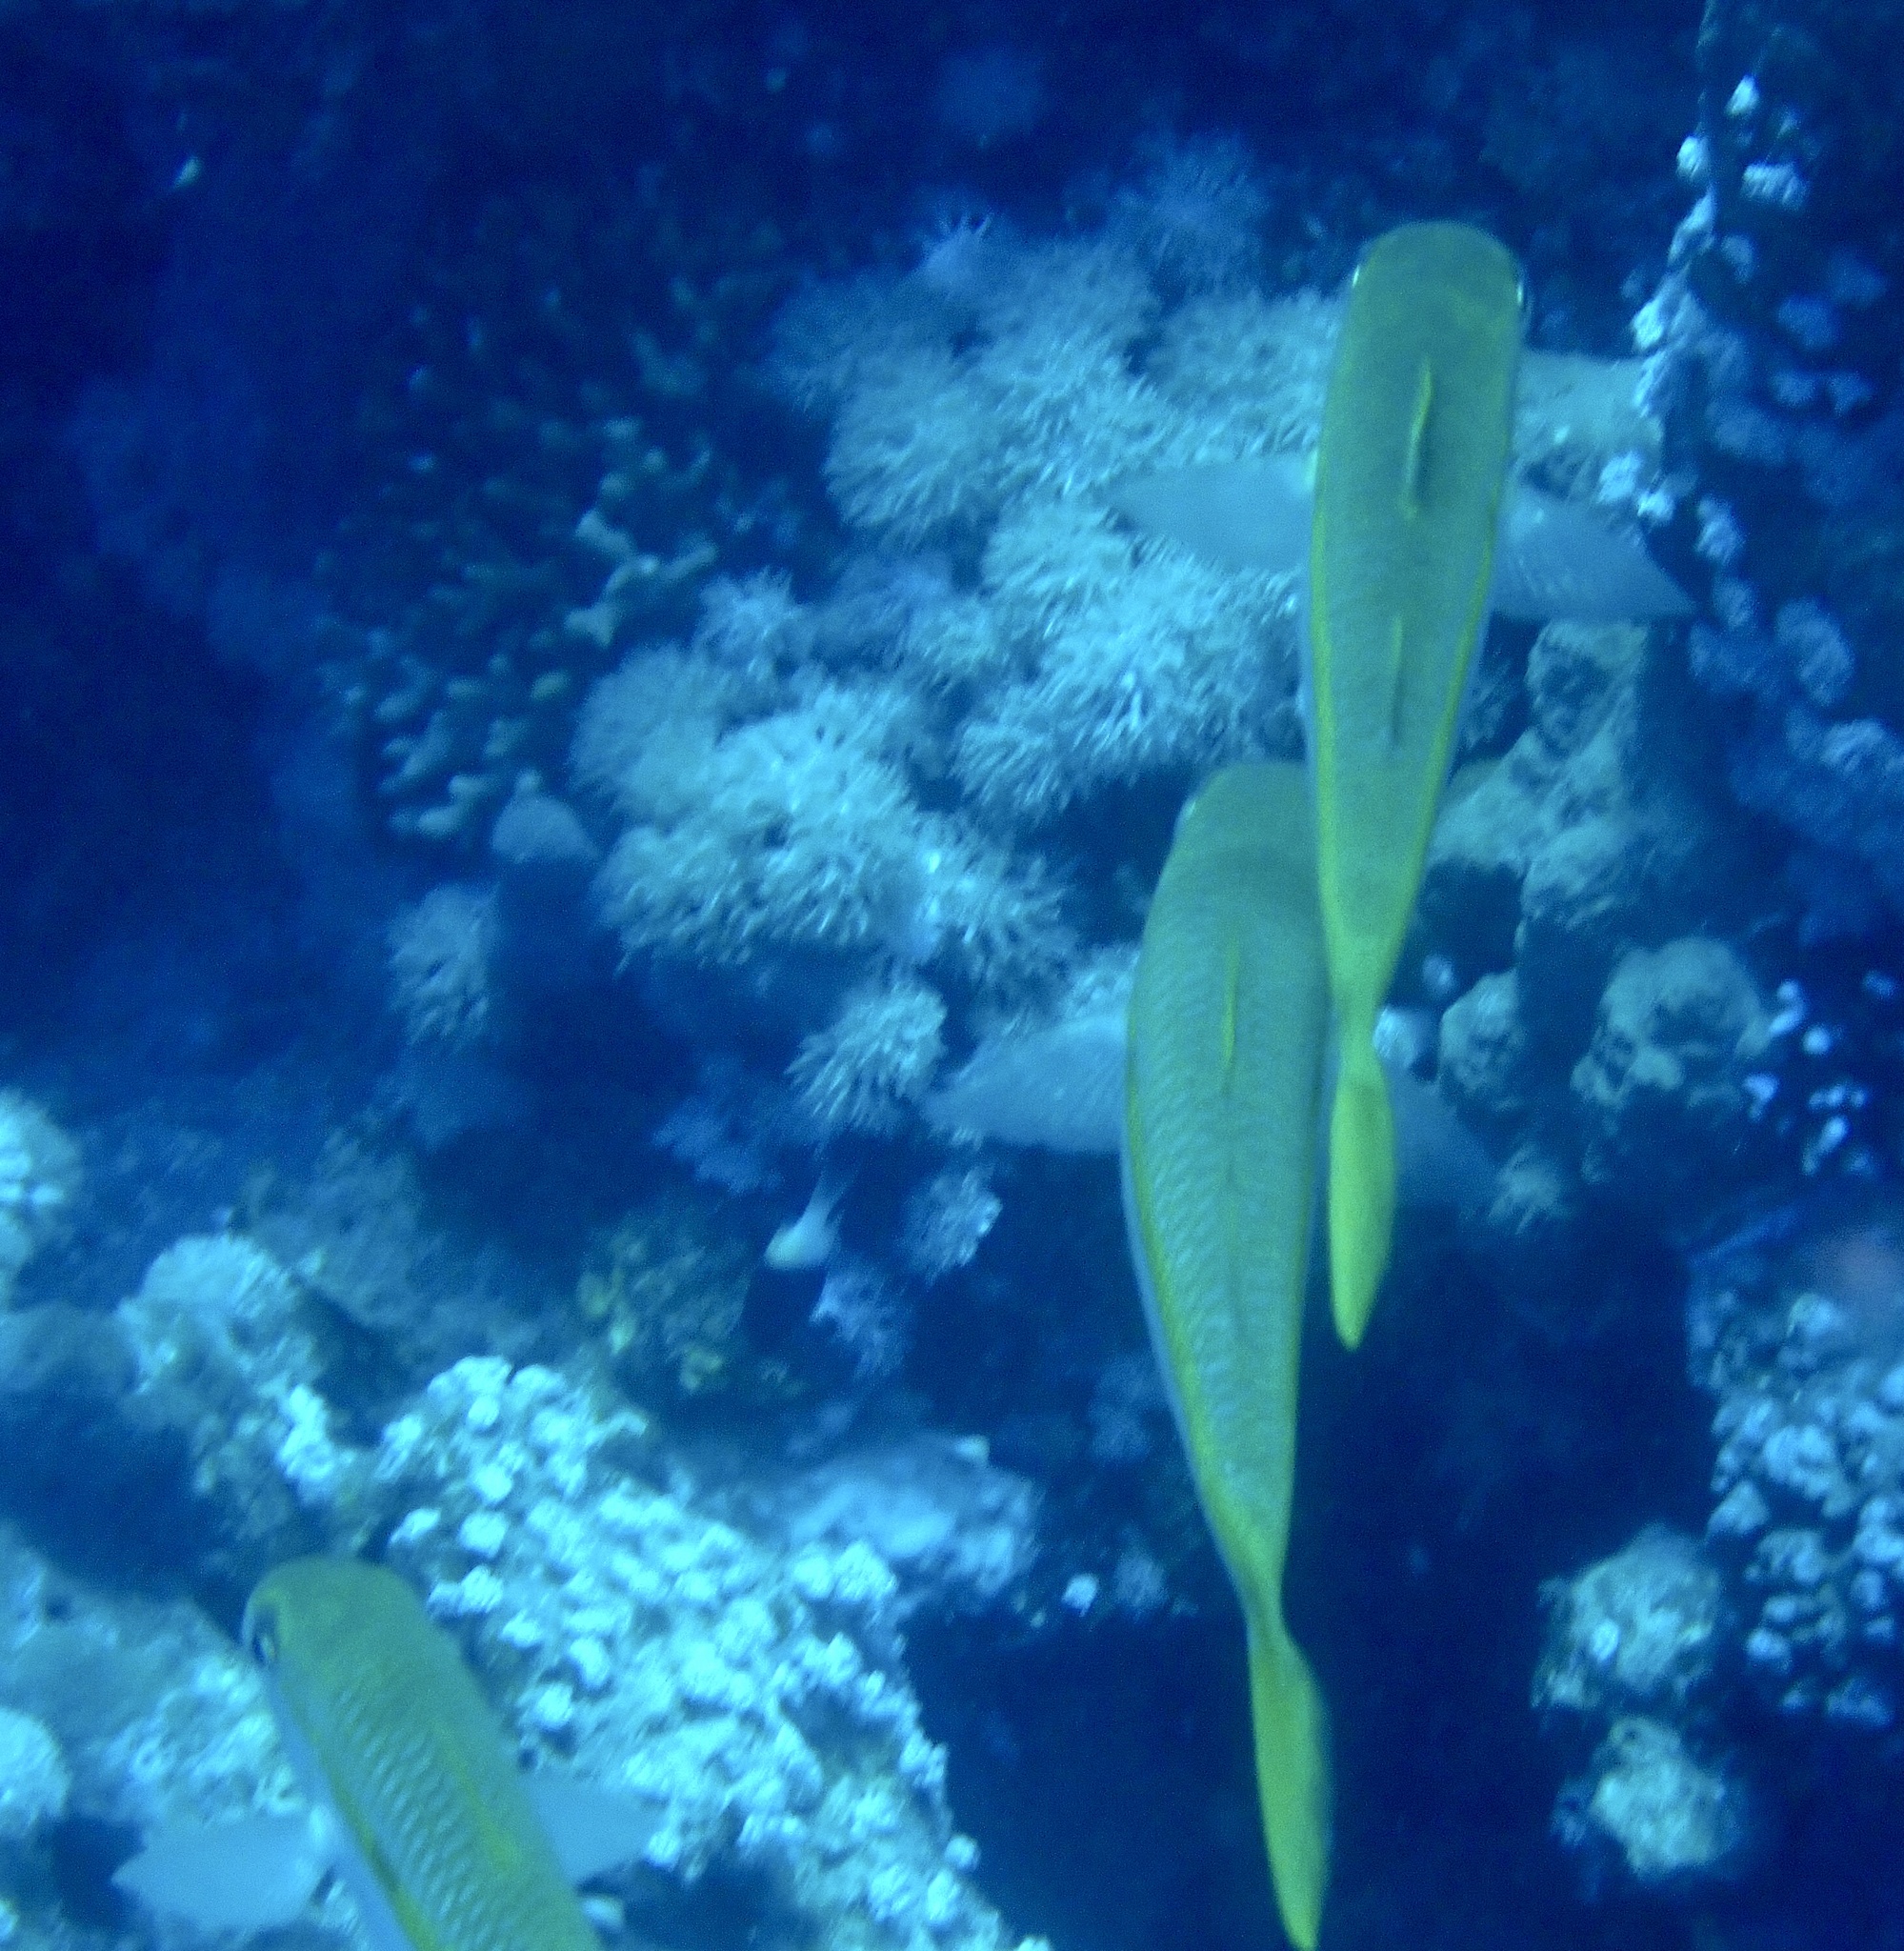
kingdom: Animalia
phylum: Chordata
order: Perciformes
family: Mullidae
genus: Mulloidichthys
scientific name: Mulloidichthys vanicolensis
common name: Yellowfin goatfish
